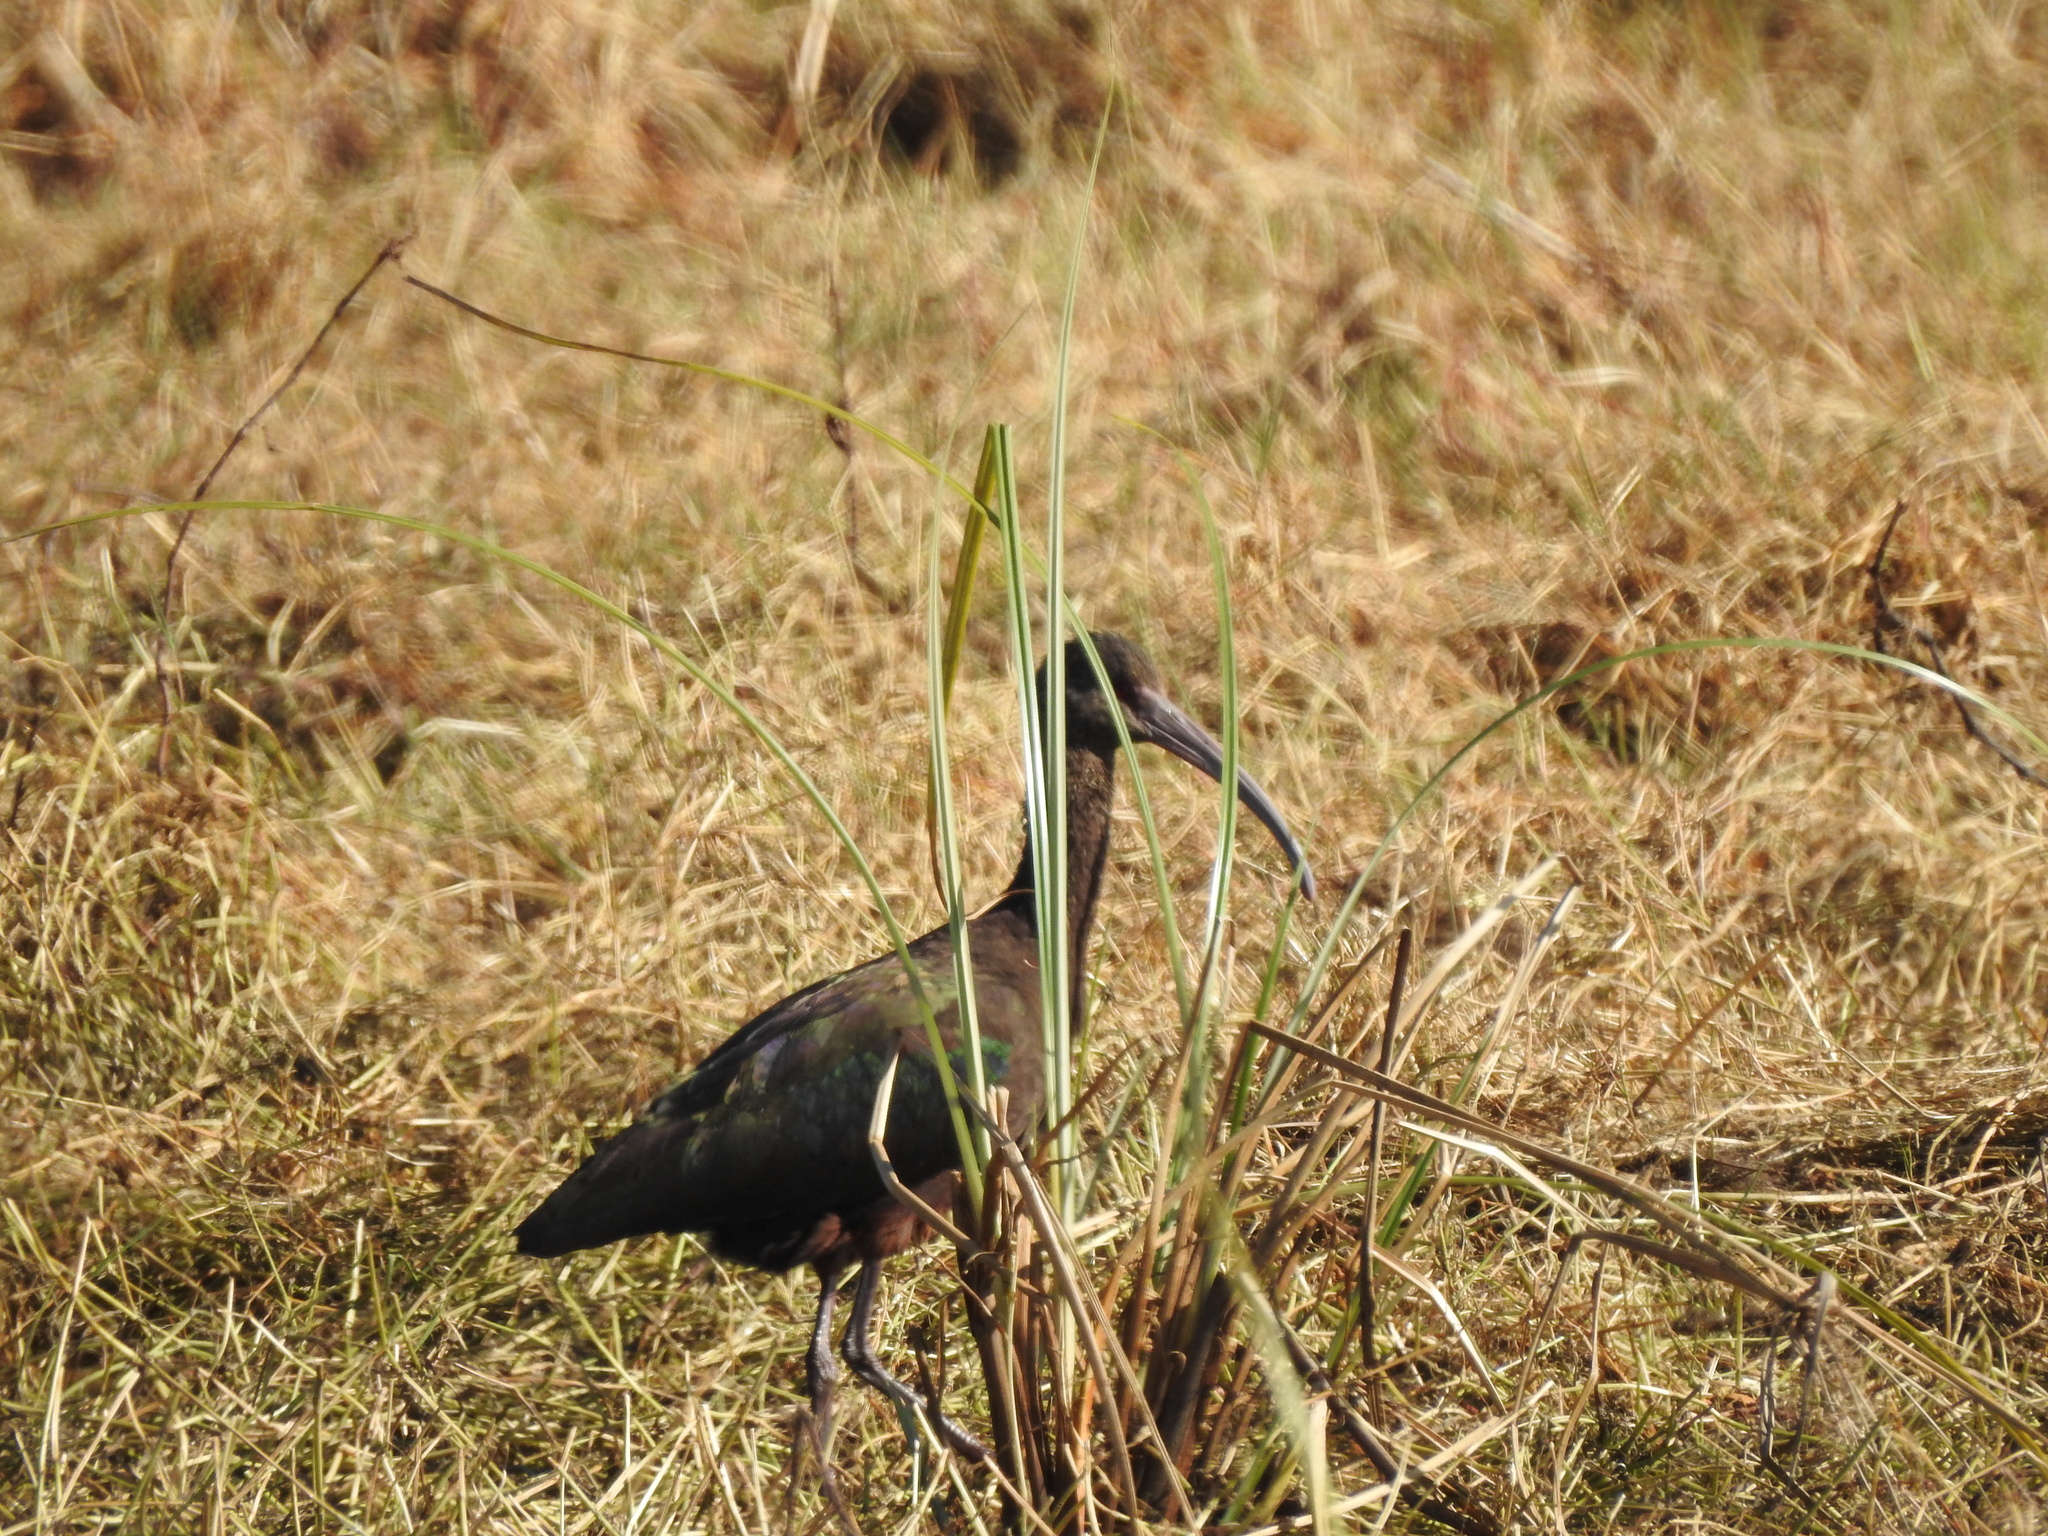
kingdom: Animalia
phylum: Chordata
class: Aves
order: Pelecaniformes
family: Threskiornithidae
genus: Plegadis
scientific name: Plegadis chihi
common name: White-faced ibis
